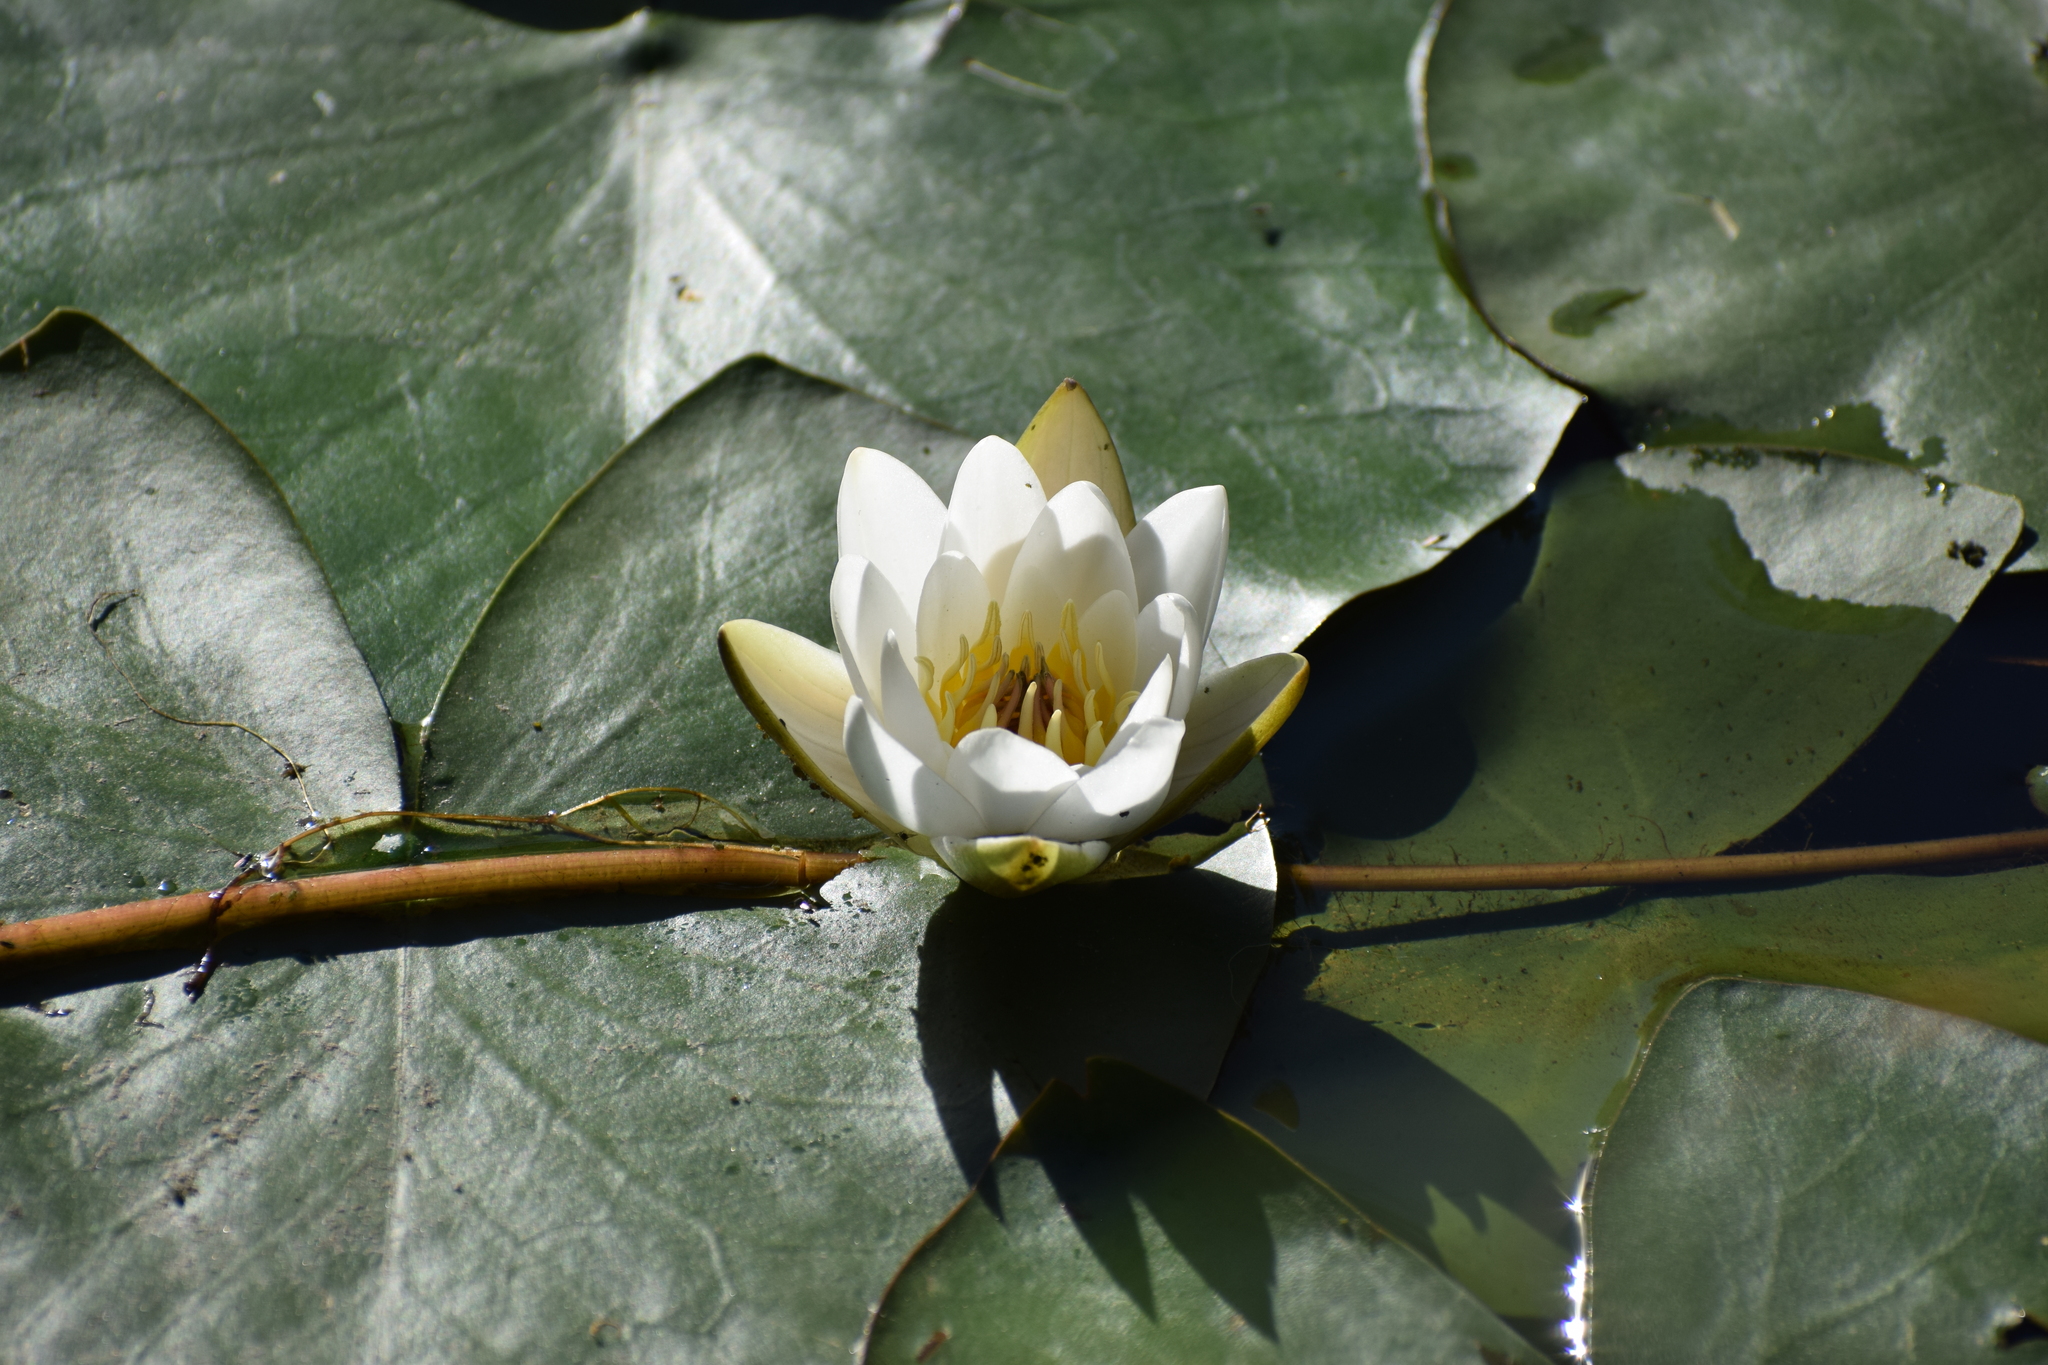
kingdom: Plantae
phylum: Tracheophyta
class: Magnoliopsida
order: Nymphaeales
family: Nymphaeaceae
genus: Nymphaea
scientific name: Nymphaea candida
